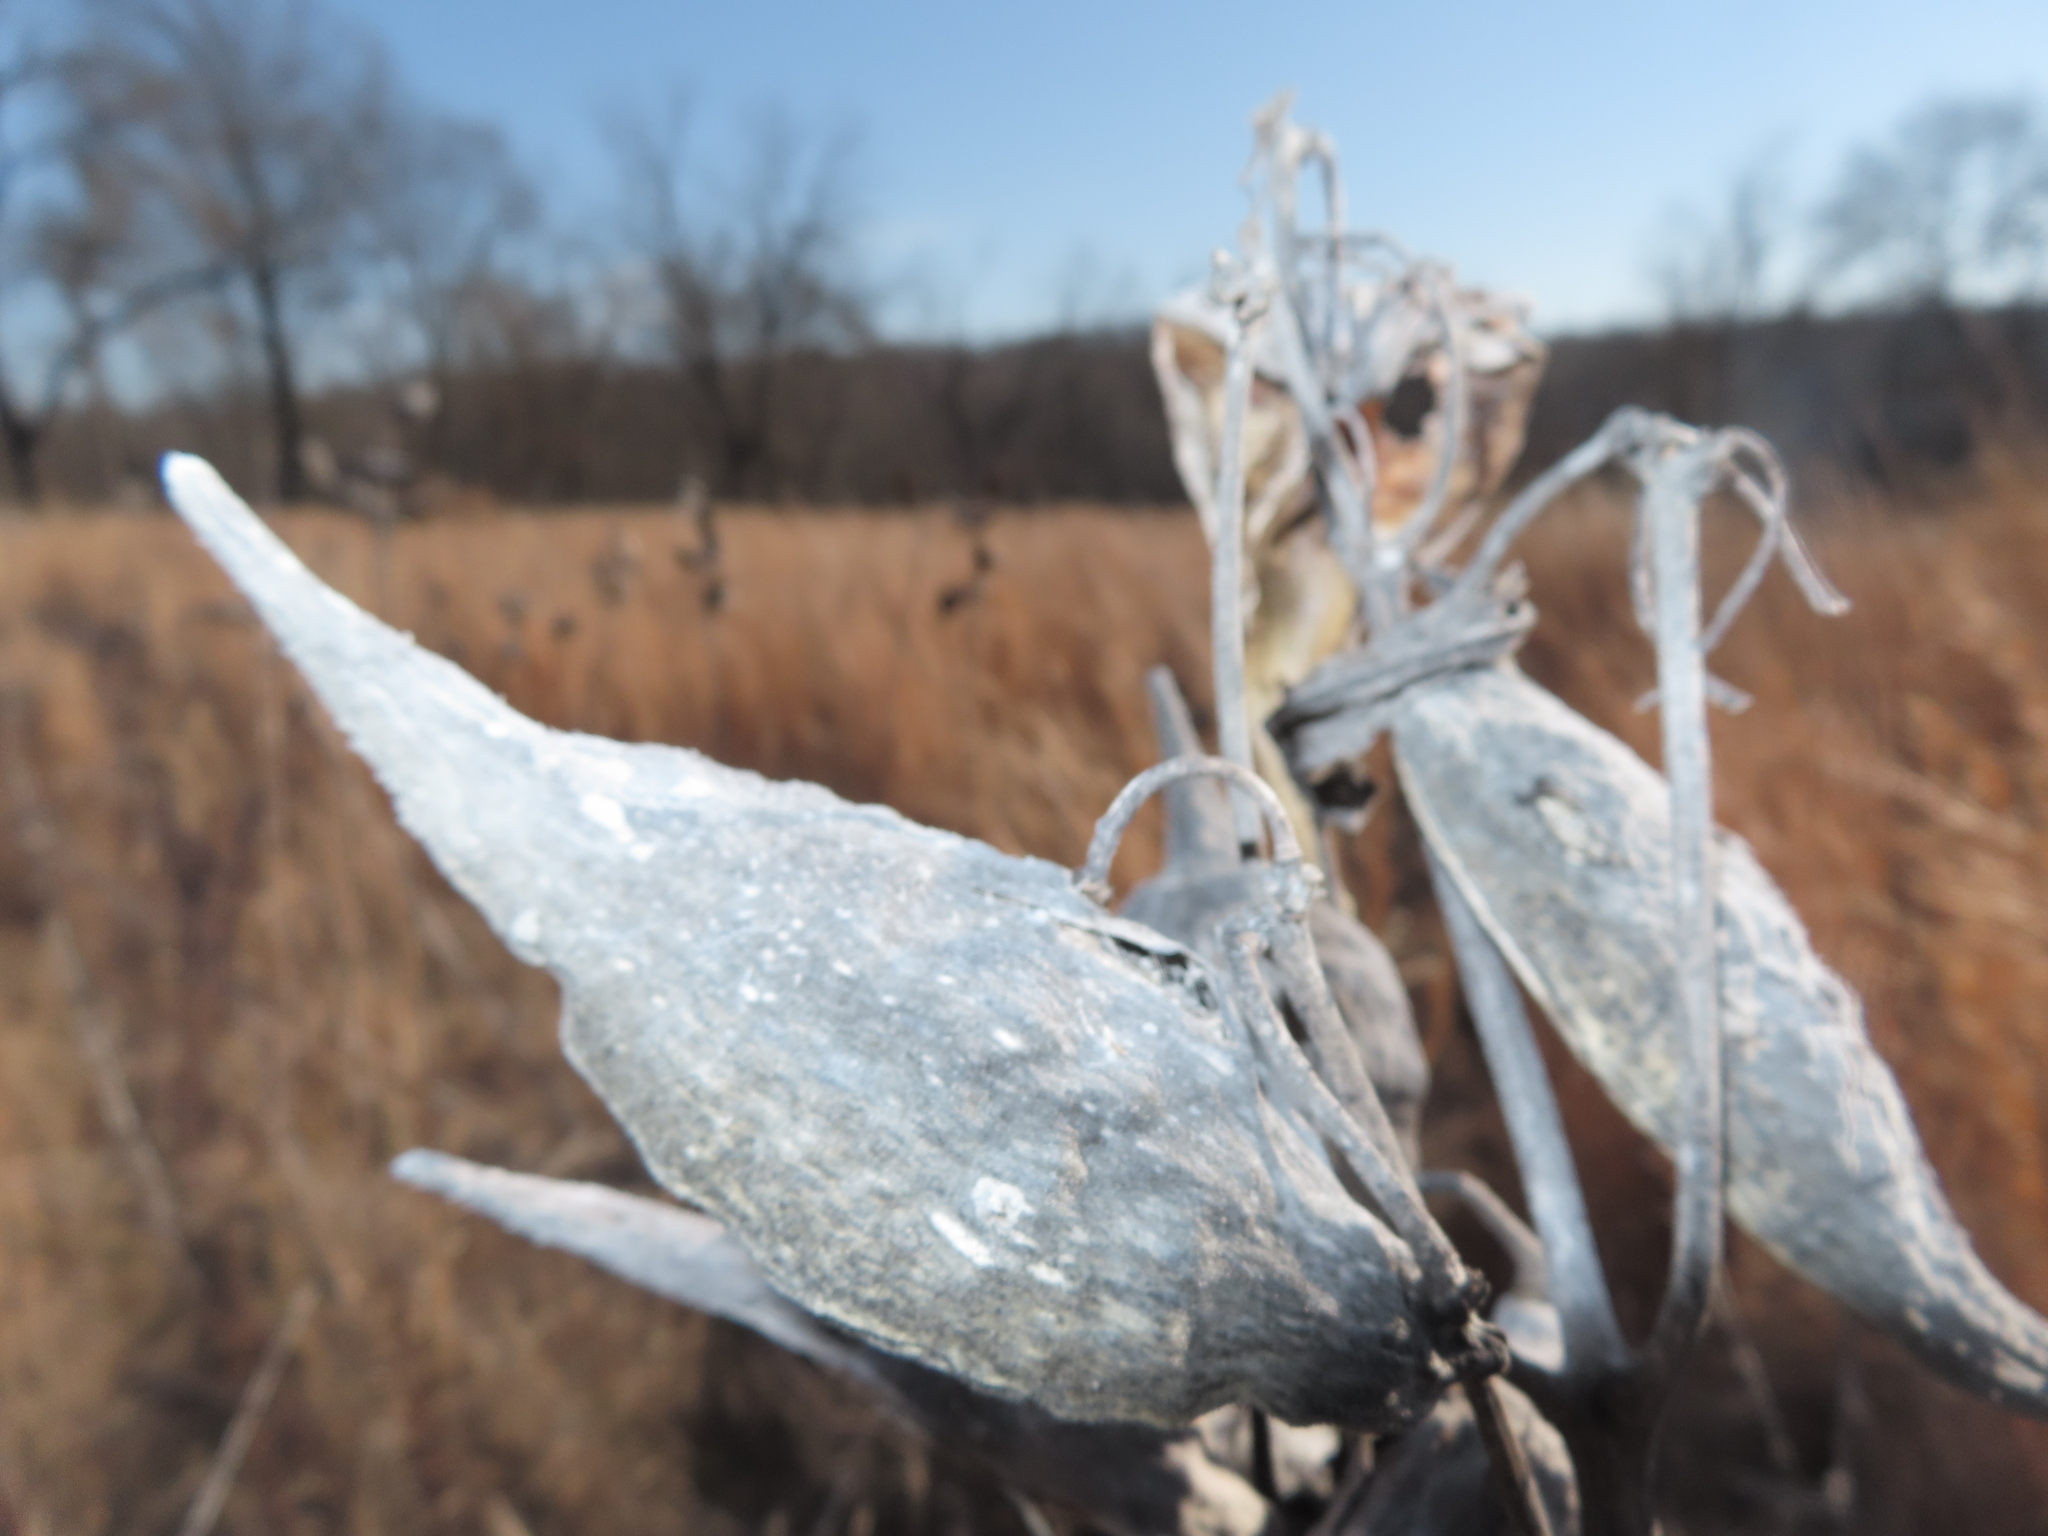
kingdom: Plantae
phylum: Tracheophyta
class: Magnoliopsida
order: Gentianales
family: Apocynaceae
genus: Asclepias
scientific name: Asclepias syriaca
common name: Common milkweed
